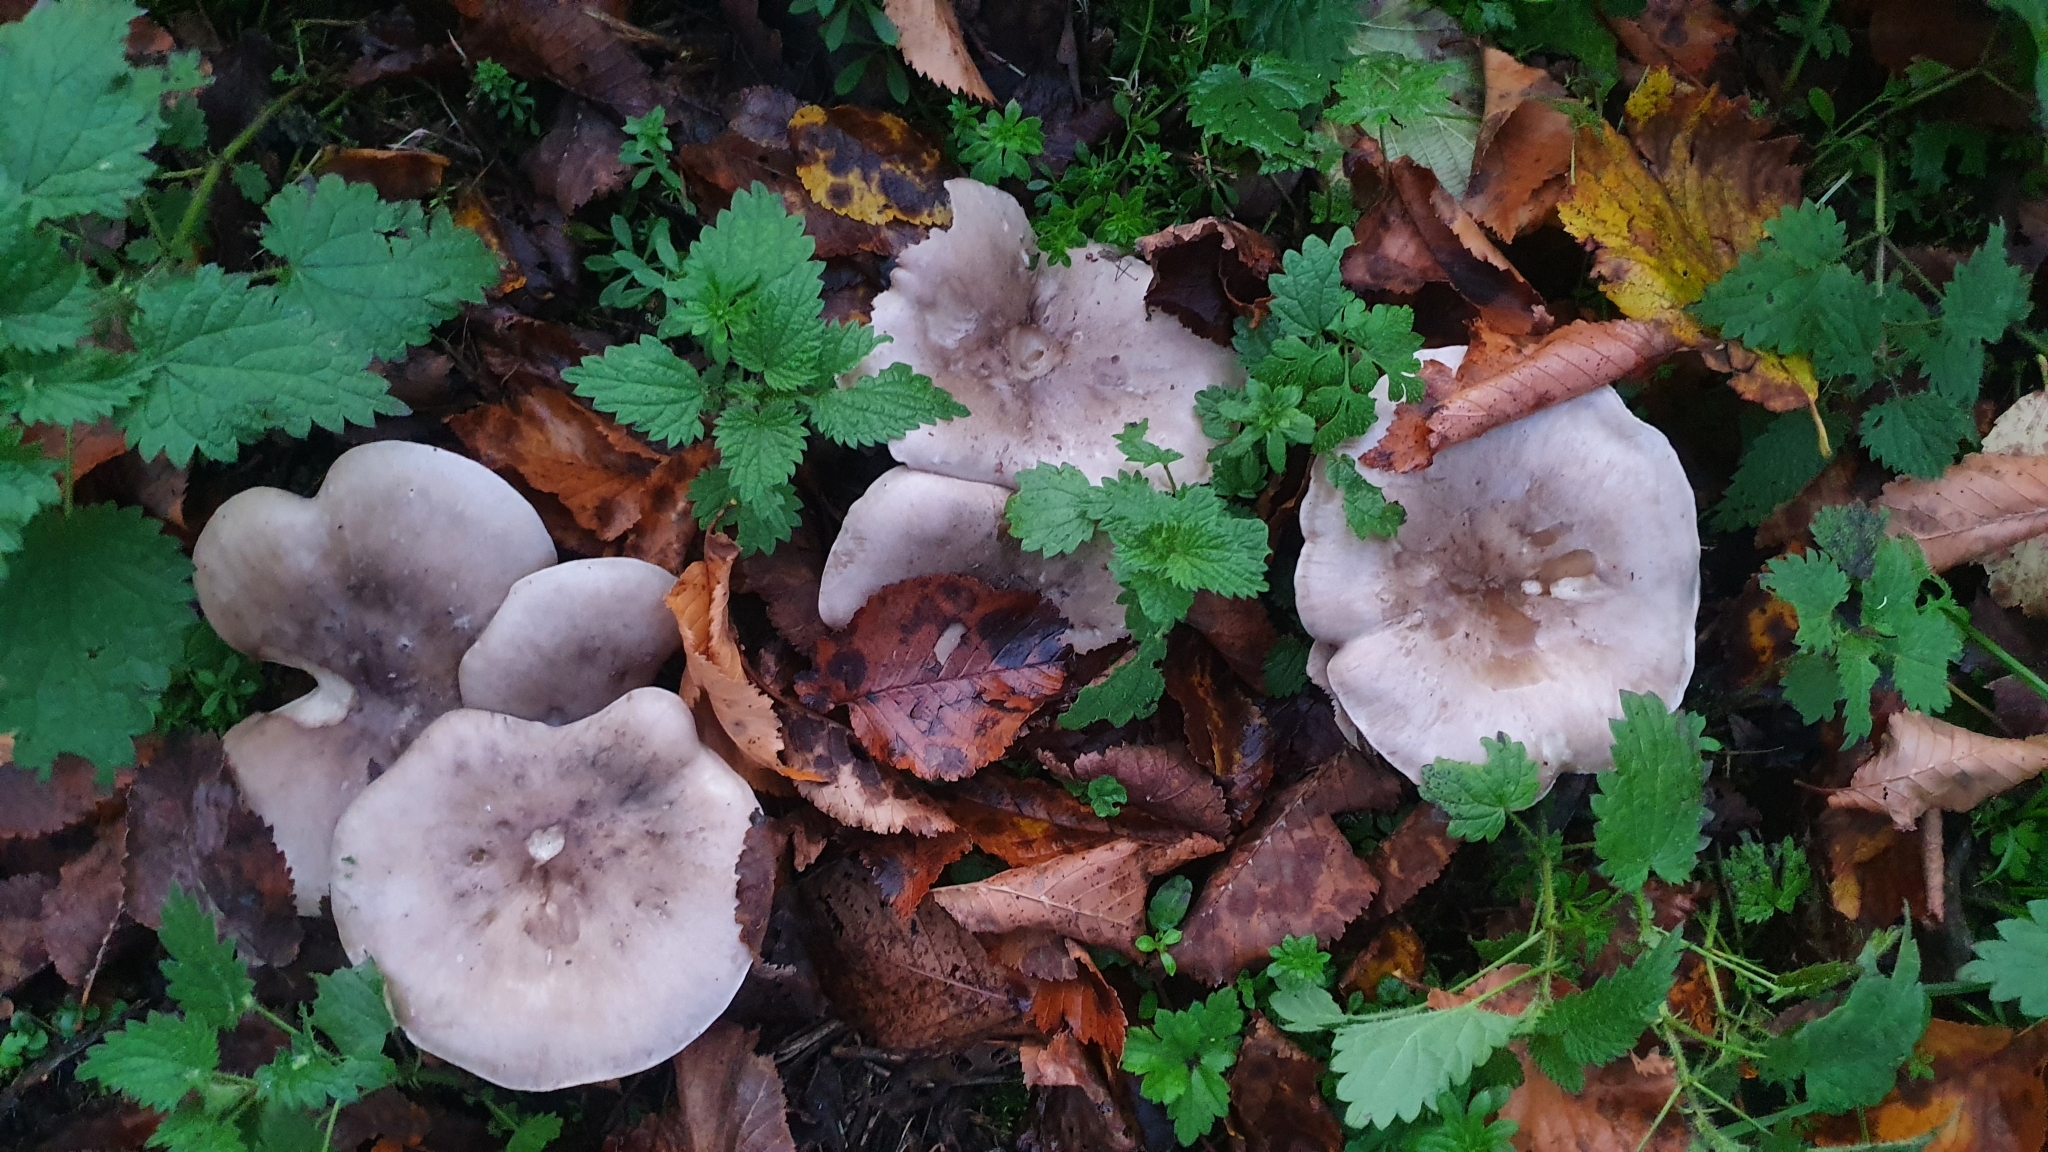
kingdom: Fungi
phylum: Basidiomycota
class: Agaricomycetes
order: Agaricales
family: Tricholomataceae
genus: Clitocybe
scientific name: Clitocybe nebularis
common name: Clouded agaric
